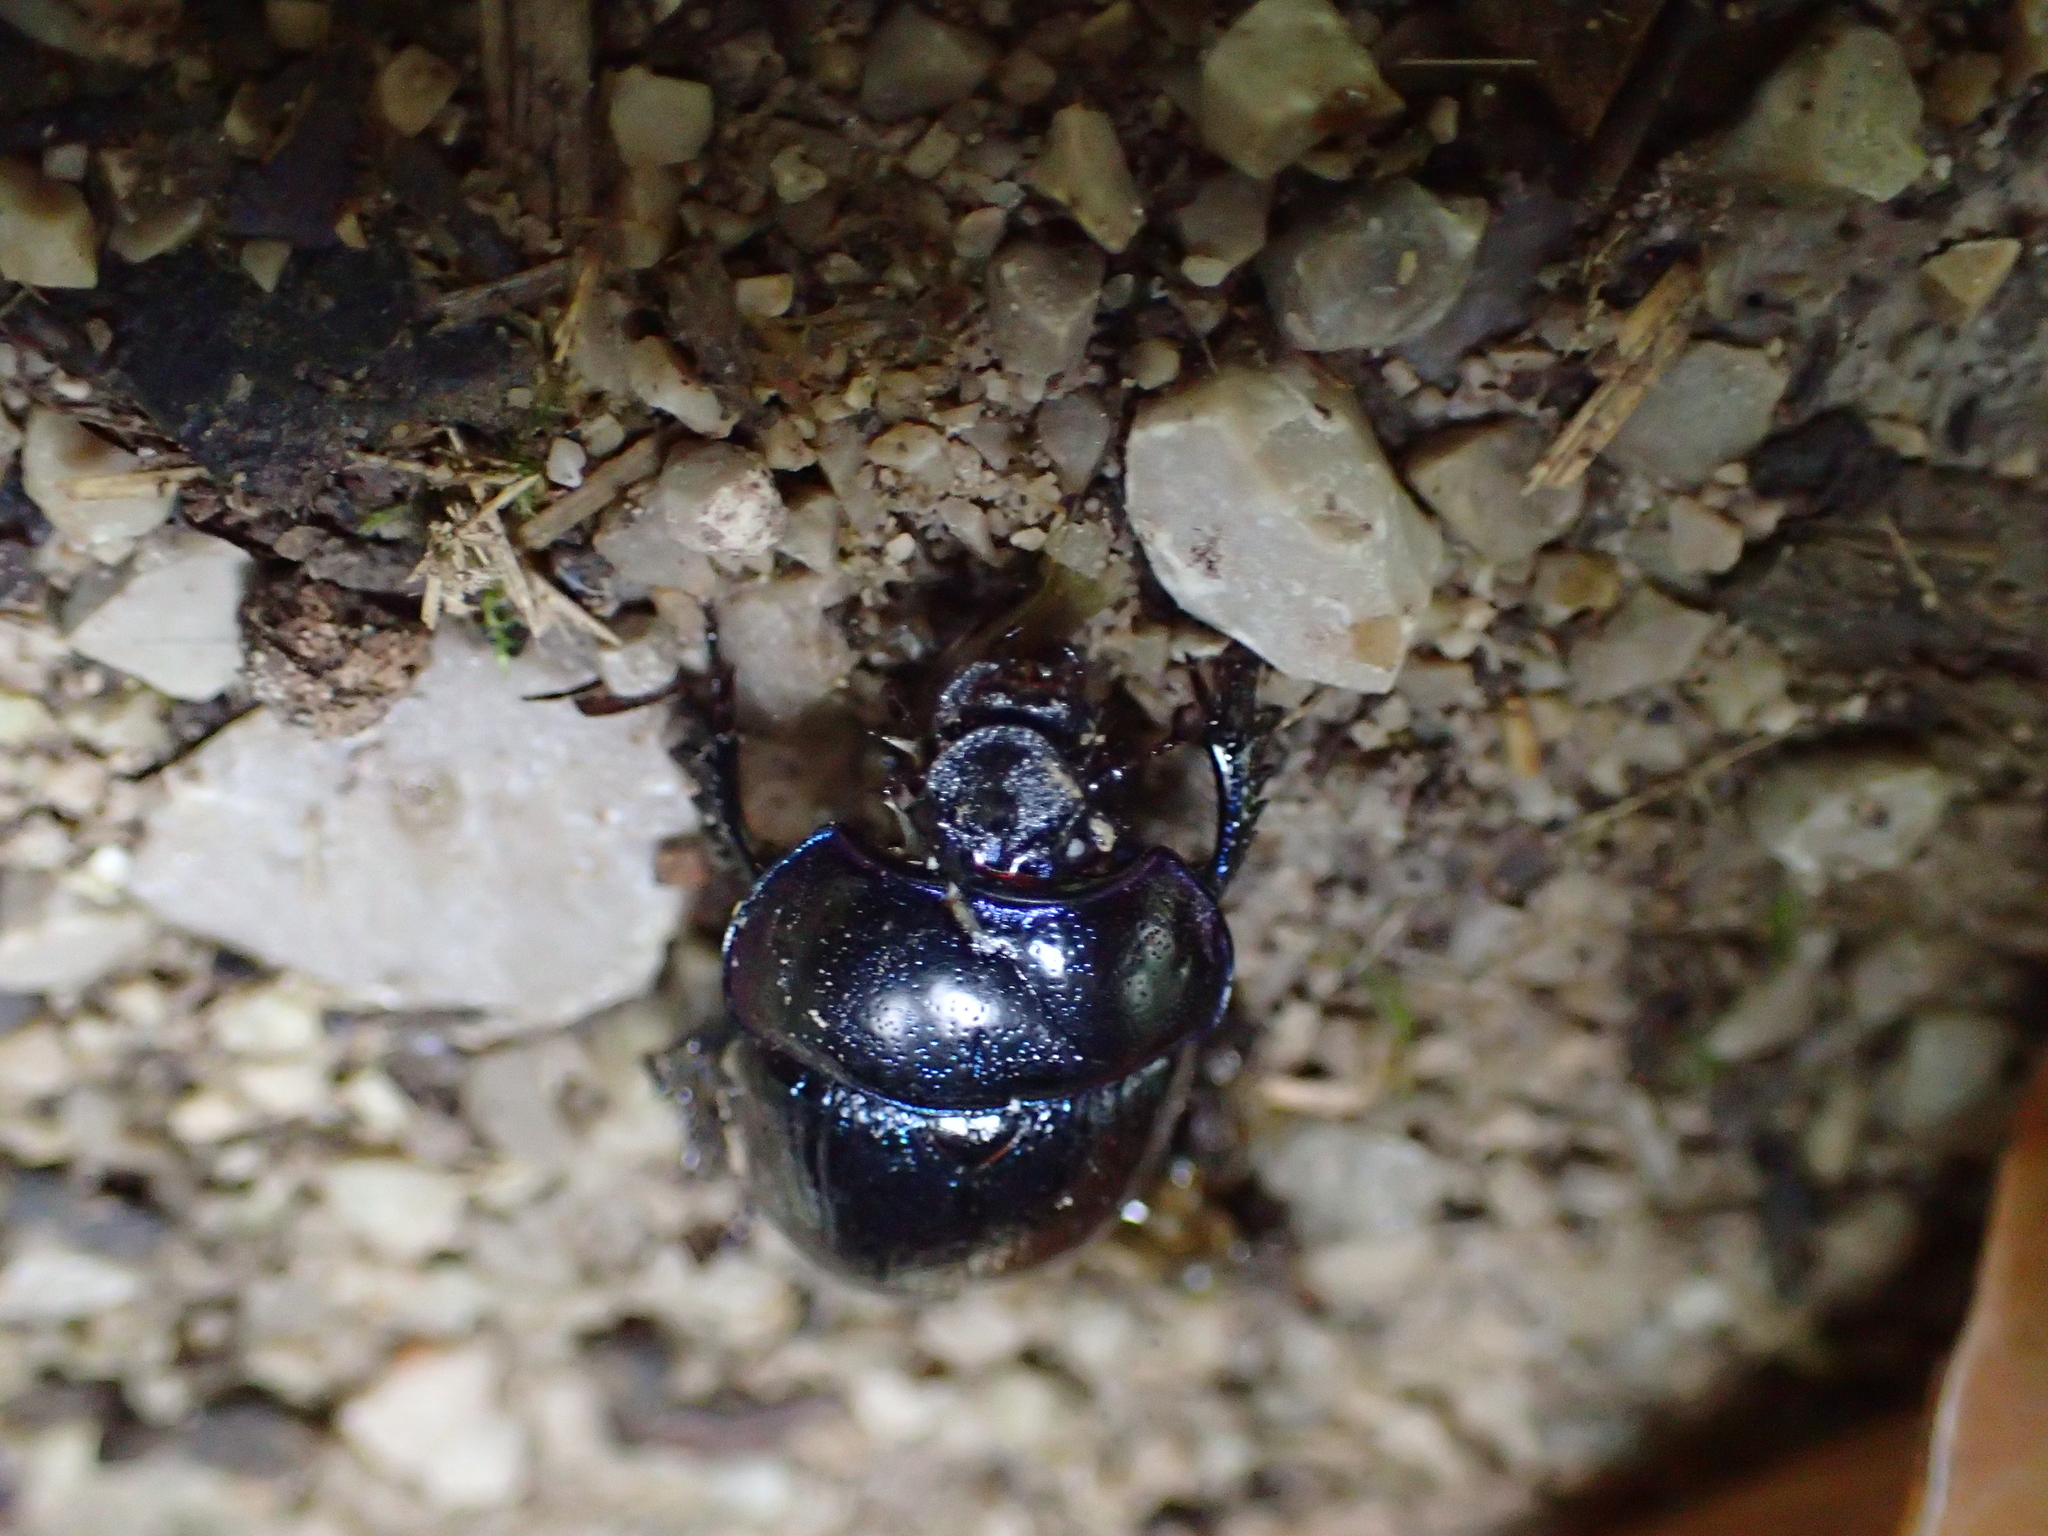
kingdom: Animalia
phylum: Arthropoda
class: Insecta
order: Coleoptera
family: Geotrupidae
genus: Anoplotrupes
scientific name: Anoplotrupes stercorosus
